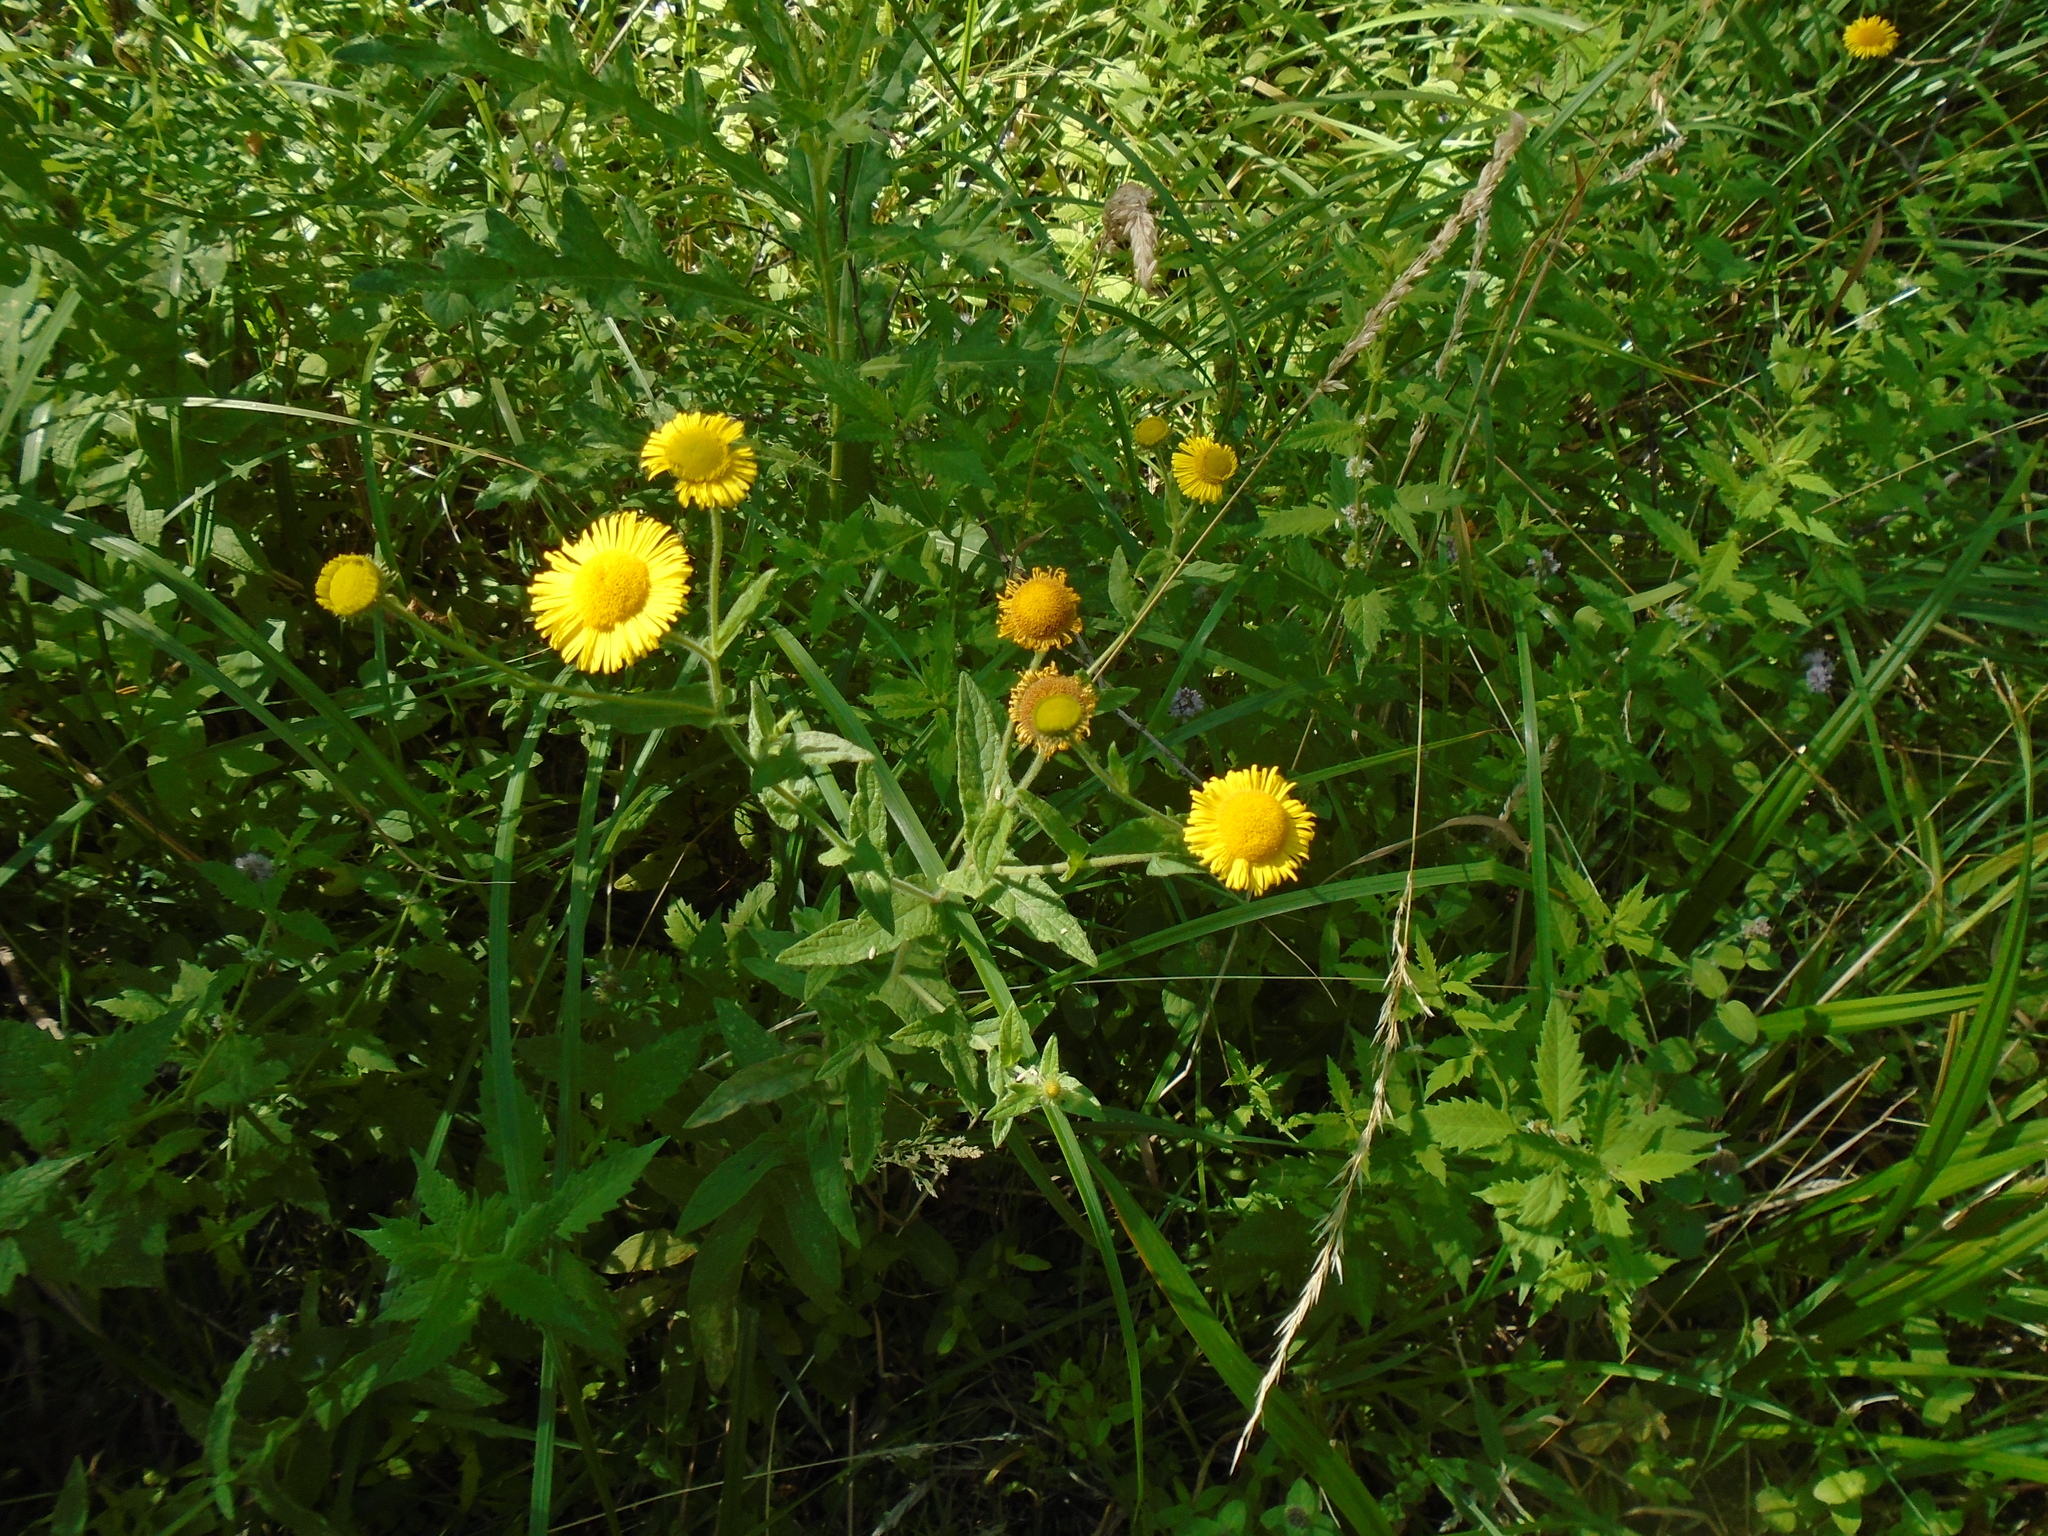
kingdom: Plantae
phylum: Tracheophyta
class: Magnoliopsida
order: Asterales
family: Asteraceae
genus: Pulicaria
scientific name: Pulicaria dysenterica
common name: Common fleabane
